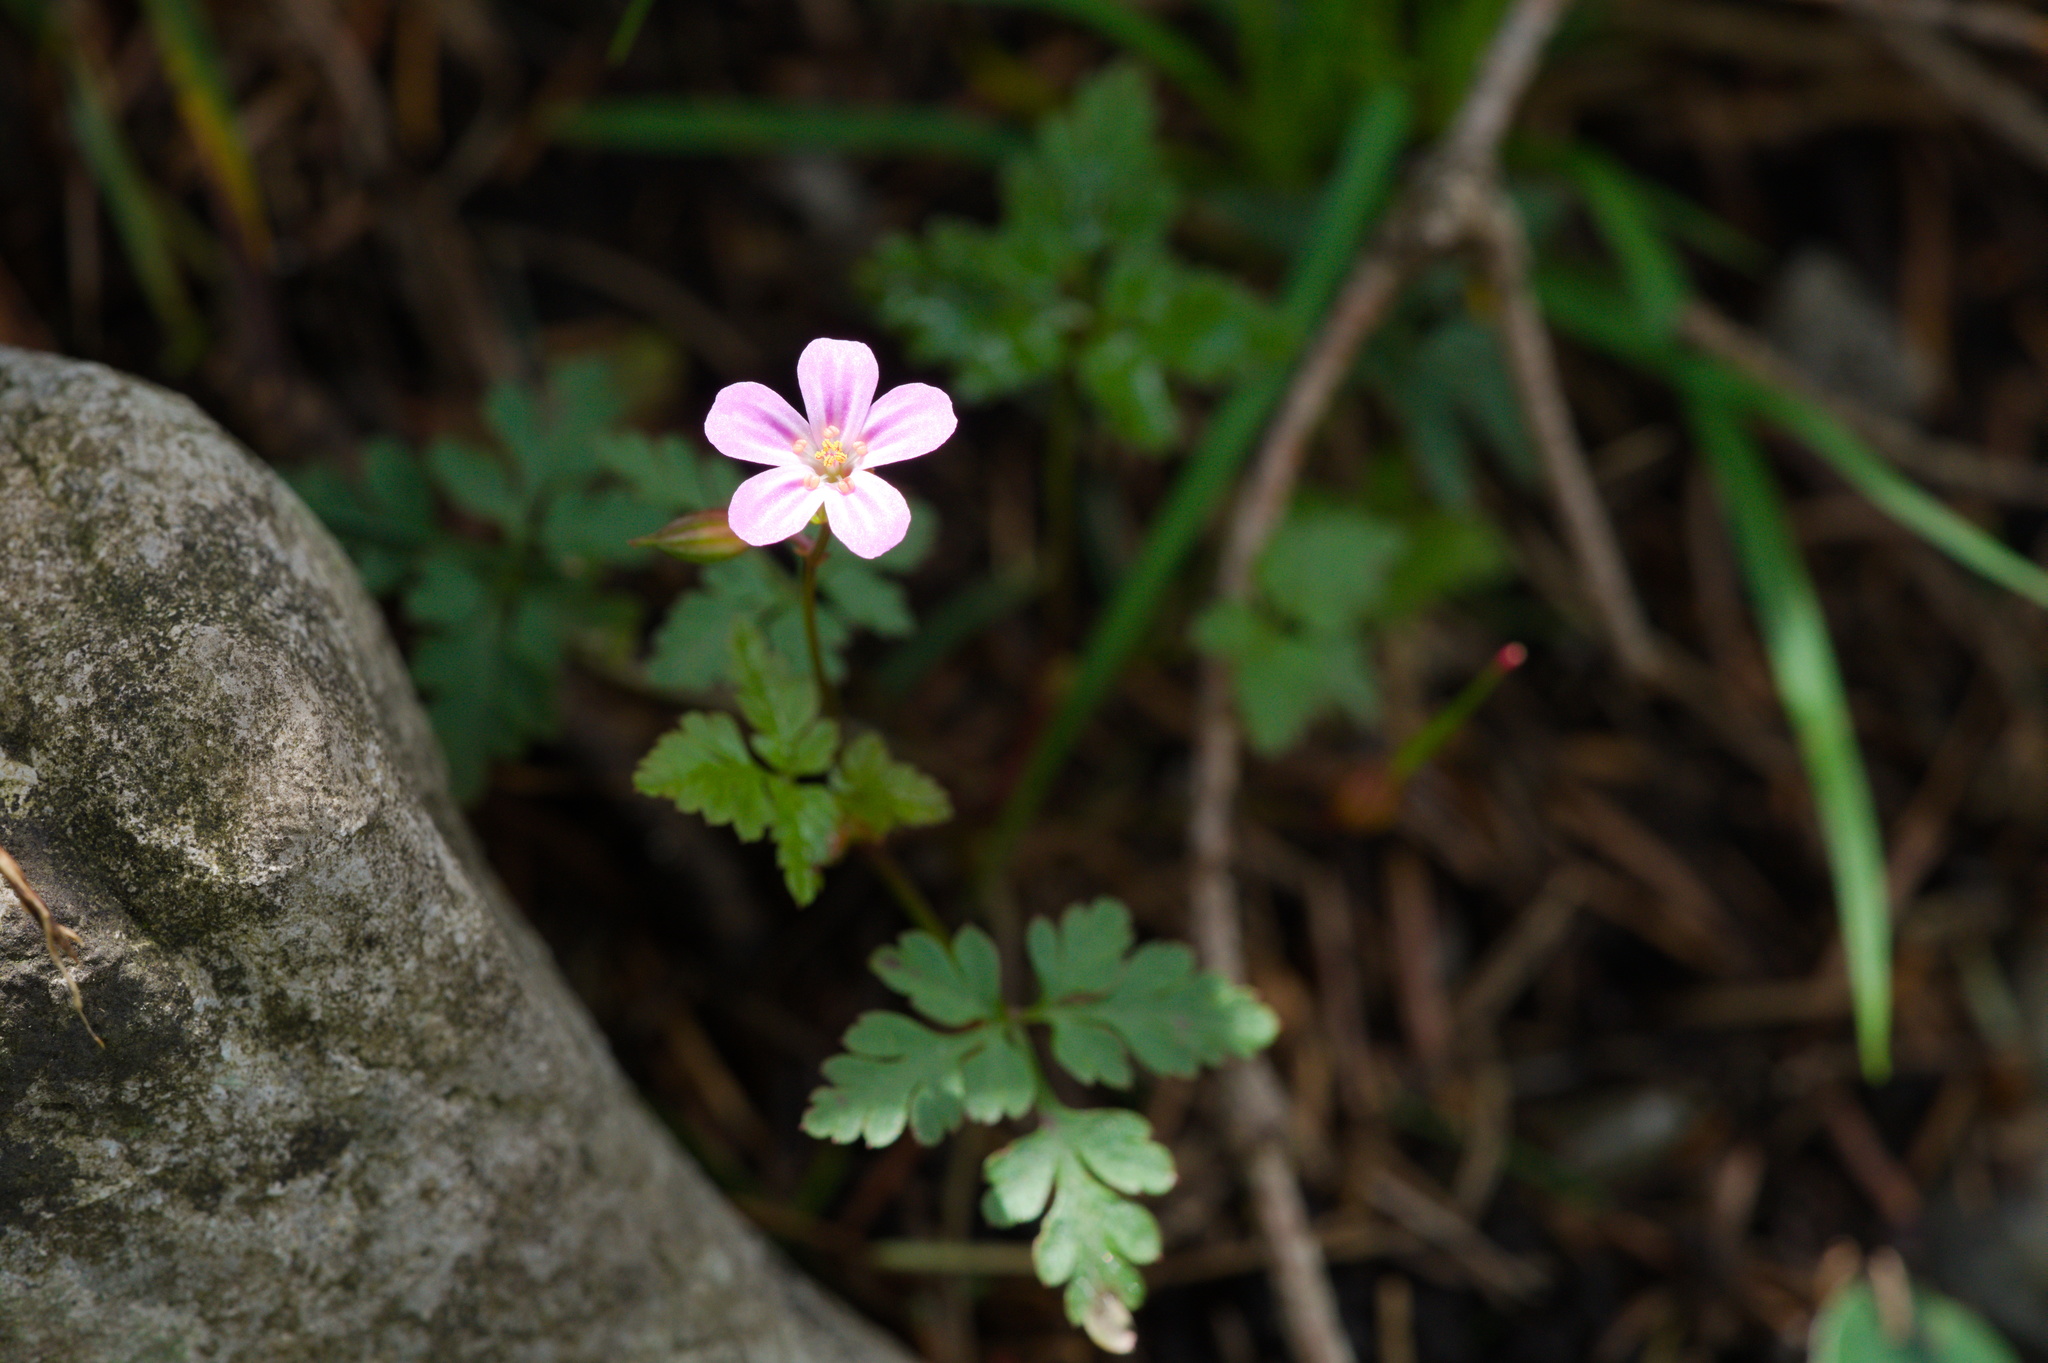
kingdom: Plantae
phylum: Tracheophyta
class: Magnoliopsida
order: Geraniales
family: Geraniaceae
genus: Geranium
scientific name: Geranium robertianum
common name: Herb-robert
